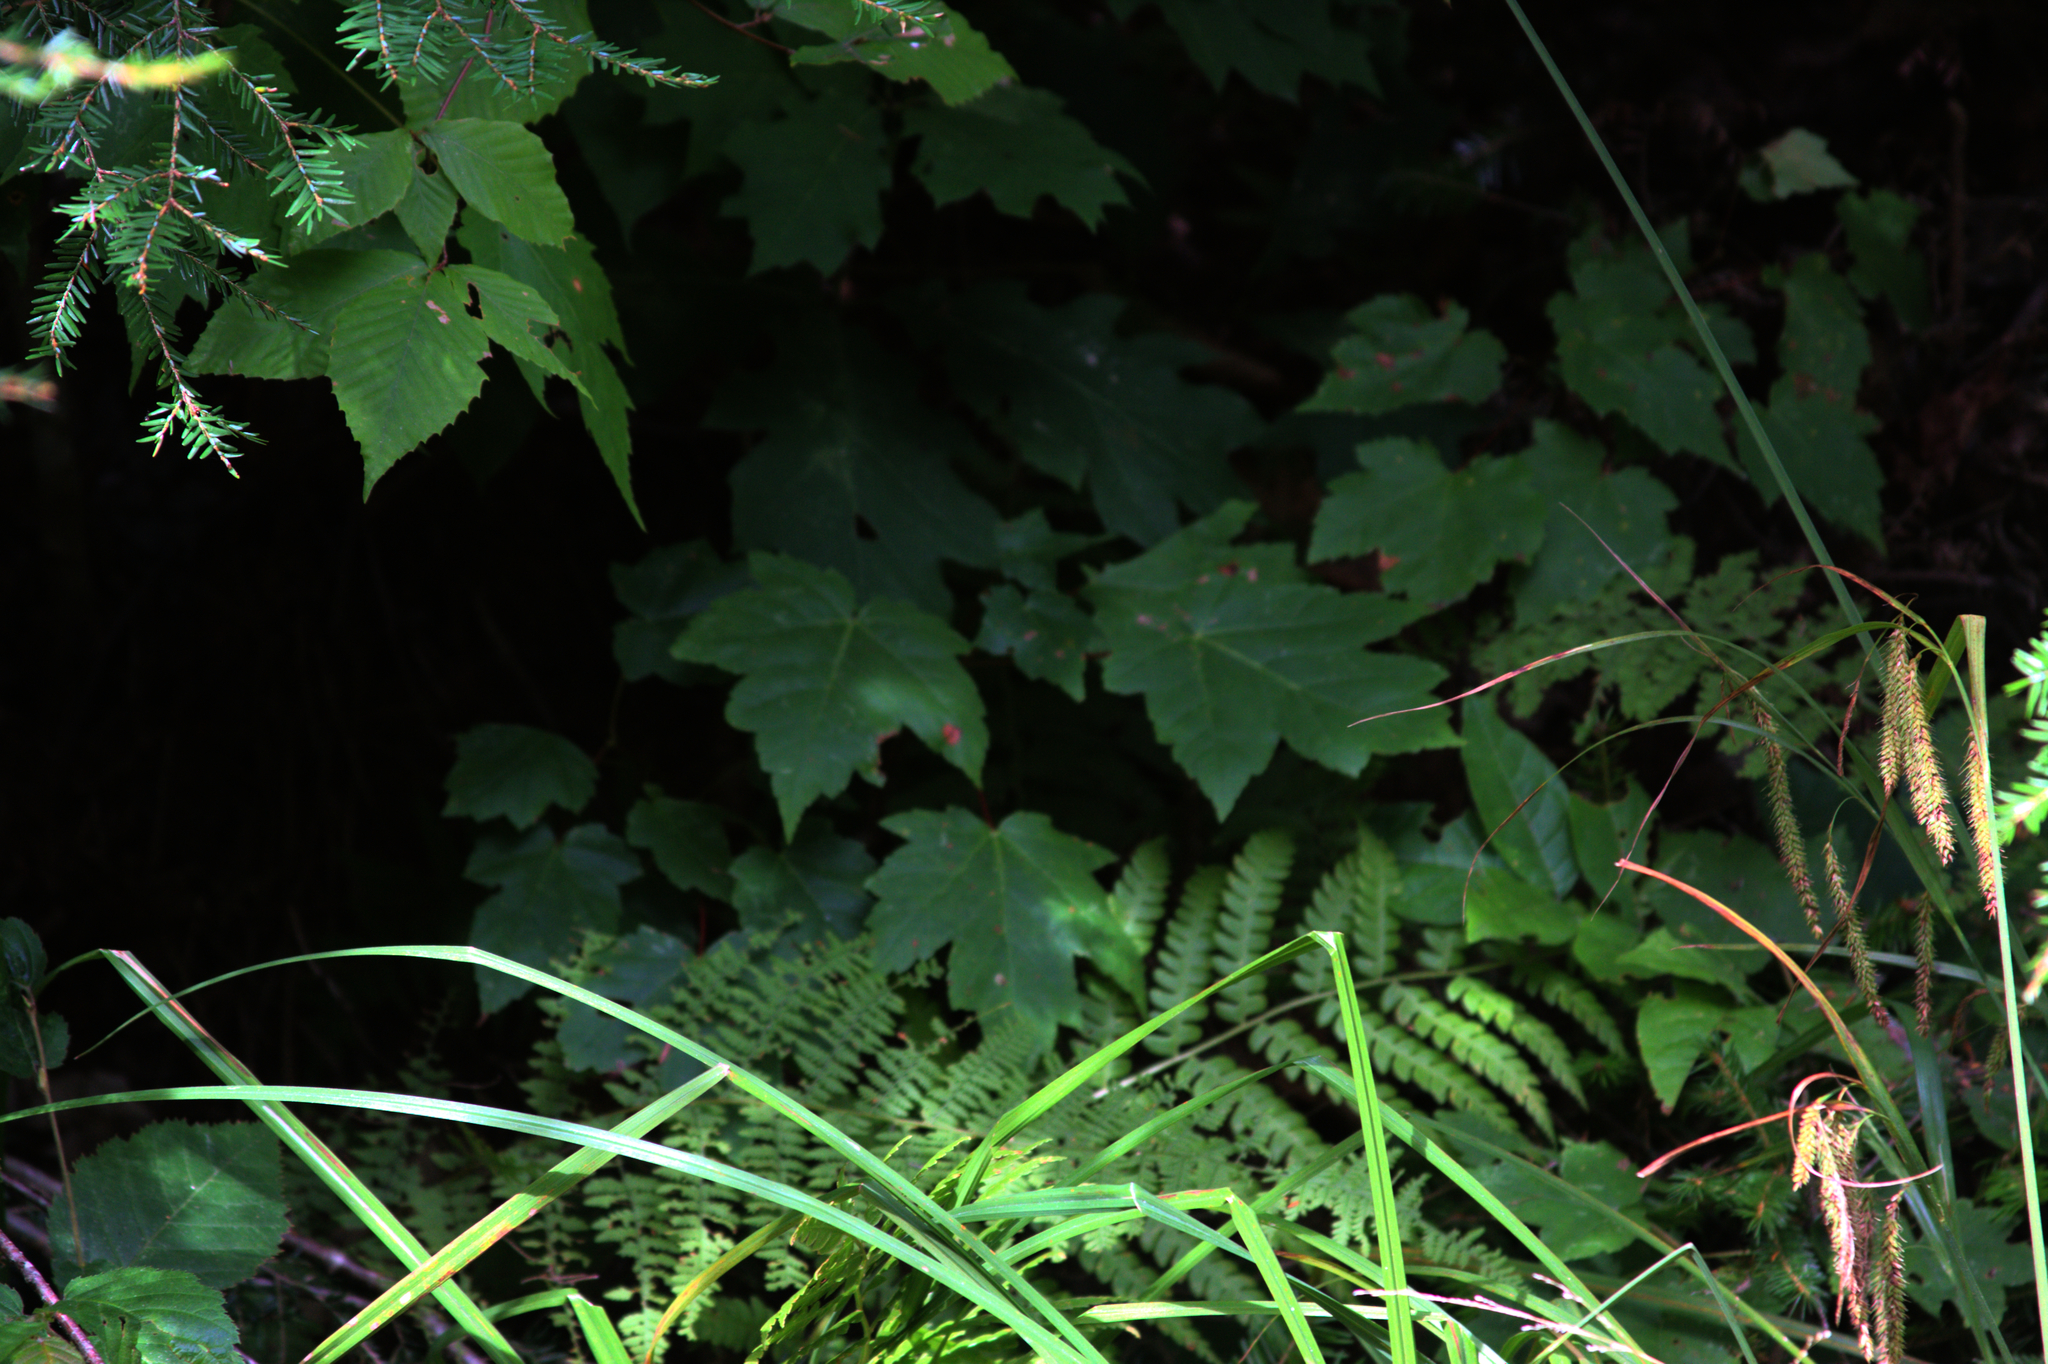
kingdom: Plantae
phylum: Tracheophyta
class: Pinopsida
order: Pinales
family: Pinaceae
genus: Tsuga
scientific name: Tsuga canadensis
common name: Eastern hemlock
